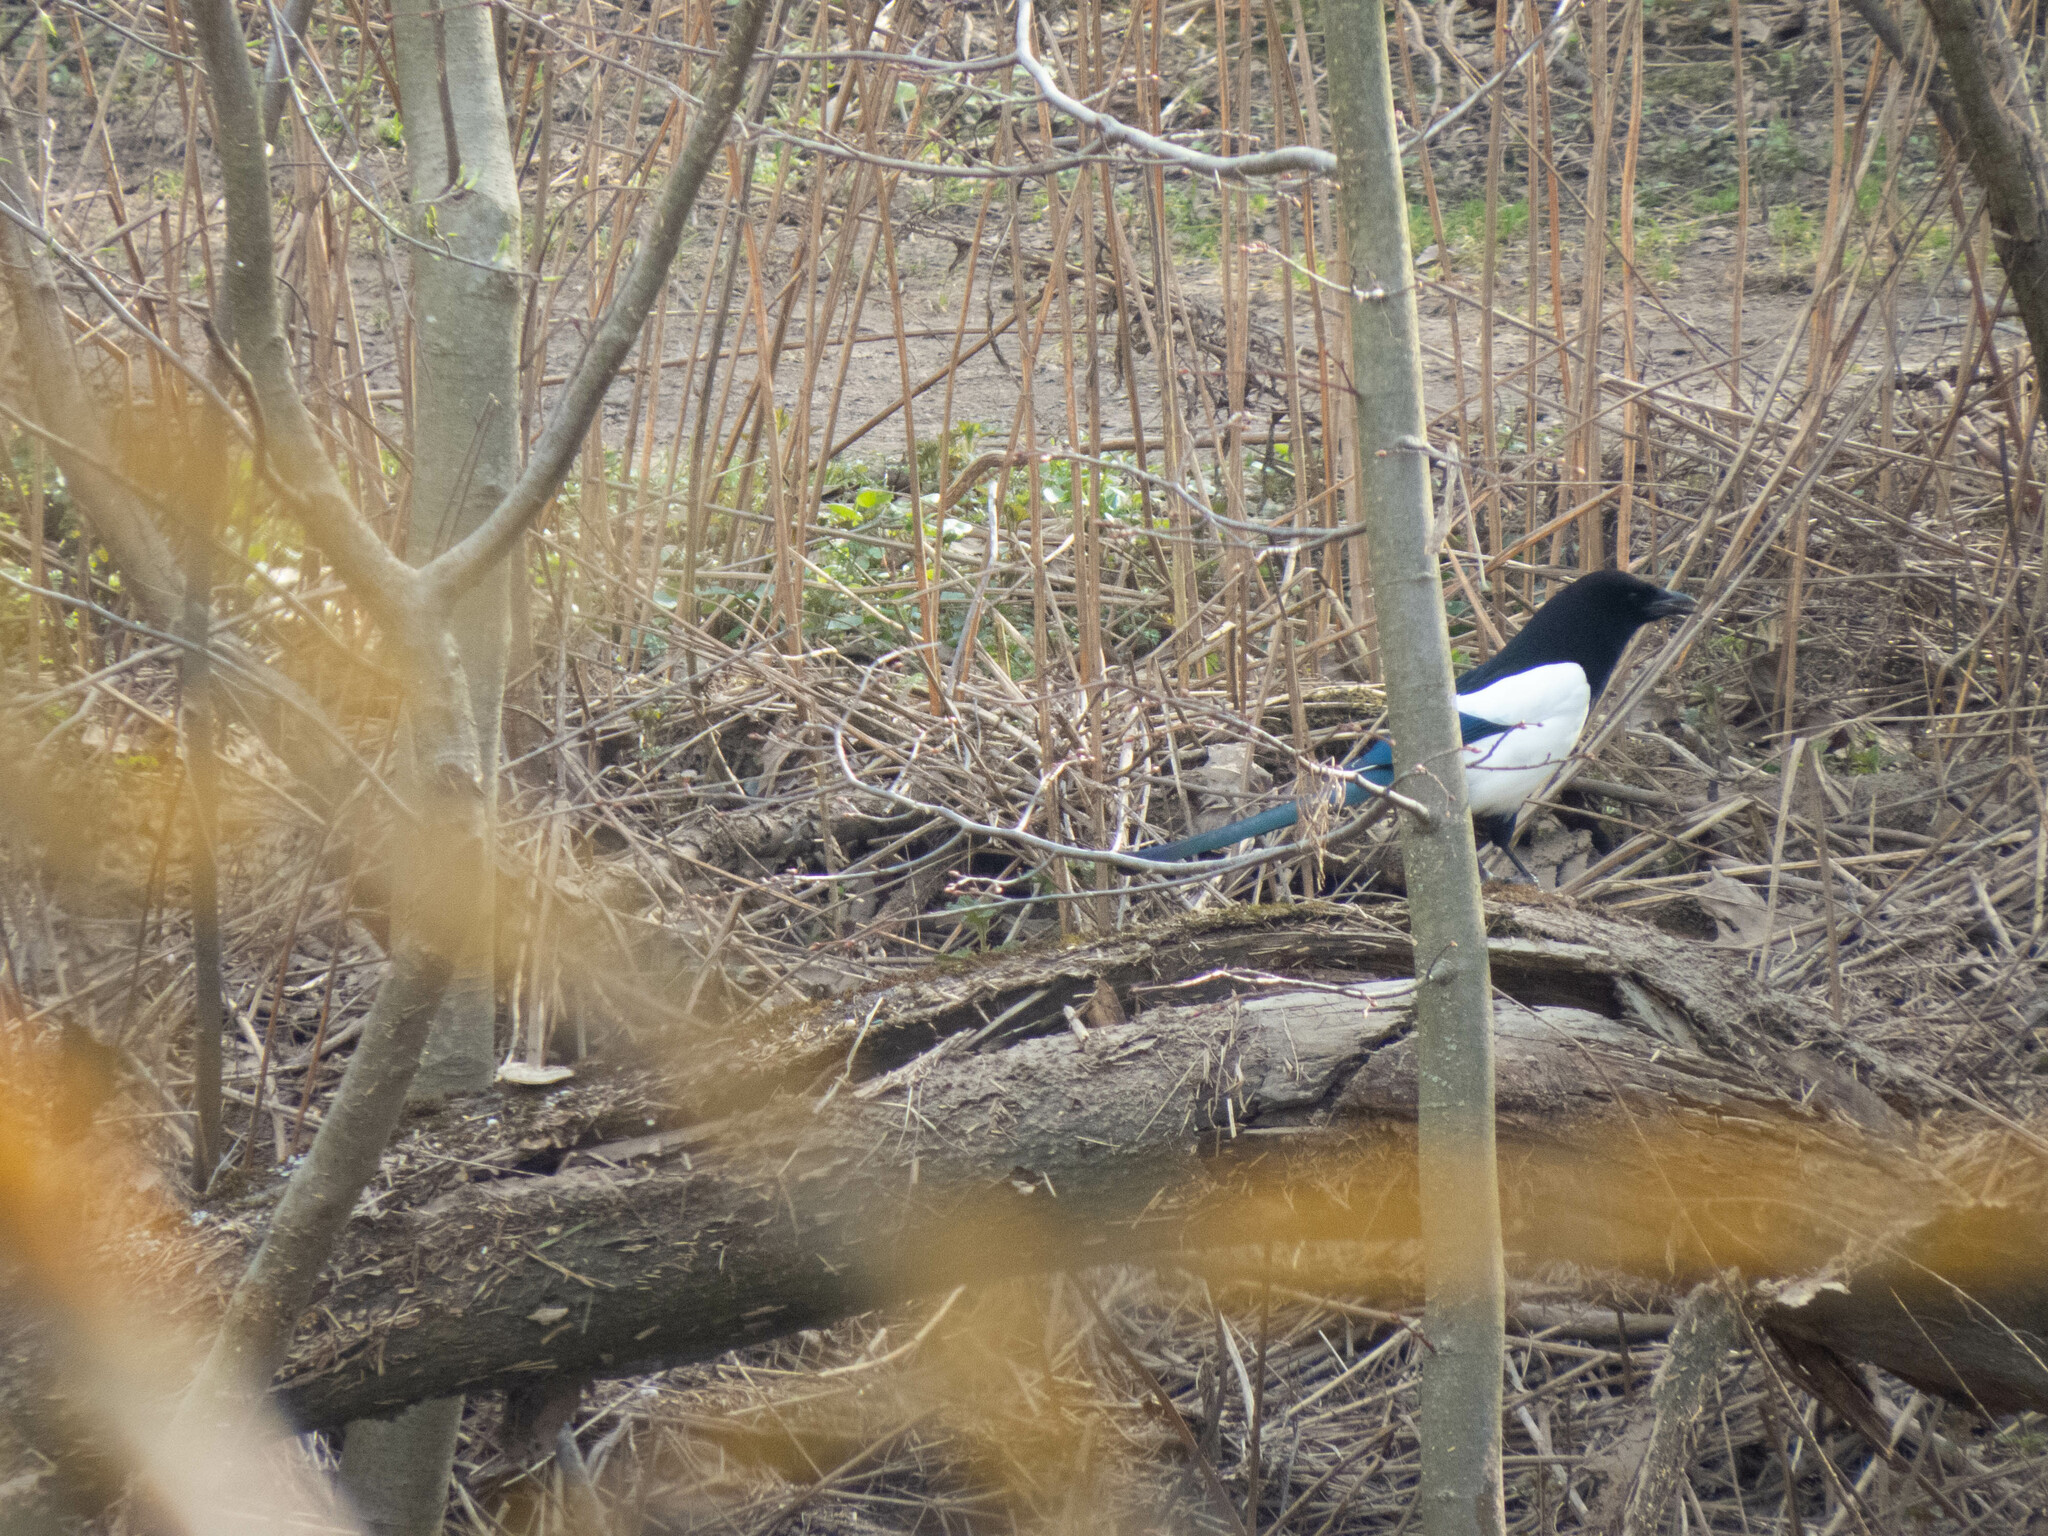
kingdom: Animalia
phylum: Chordata
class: Aves
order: Passeriformes
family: Corvidae
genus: Pica
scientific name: Pica pica
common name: Eurasian magpie
